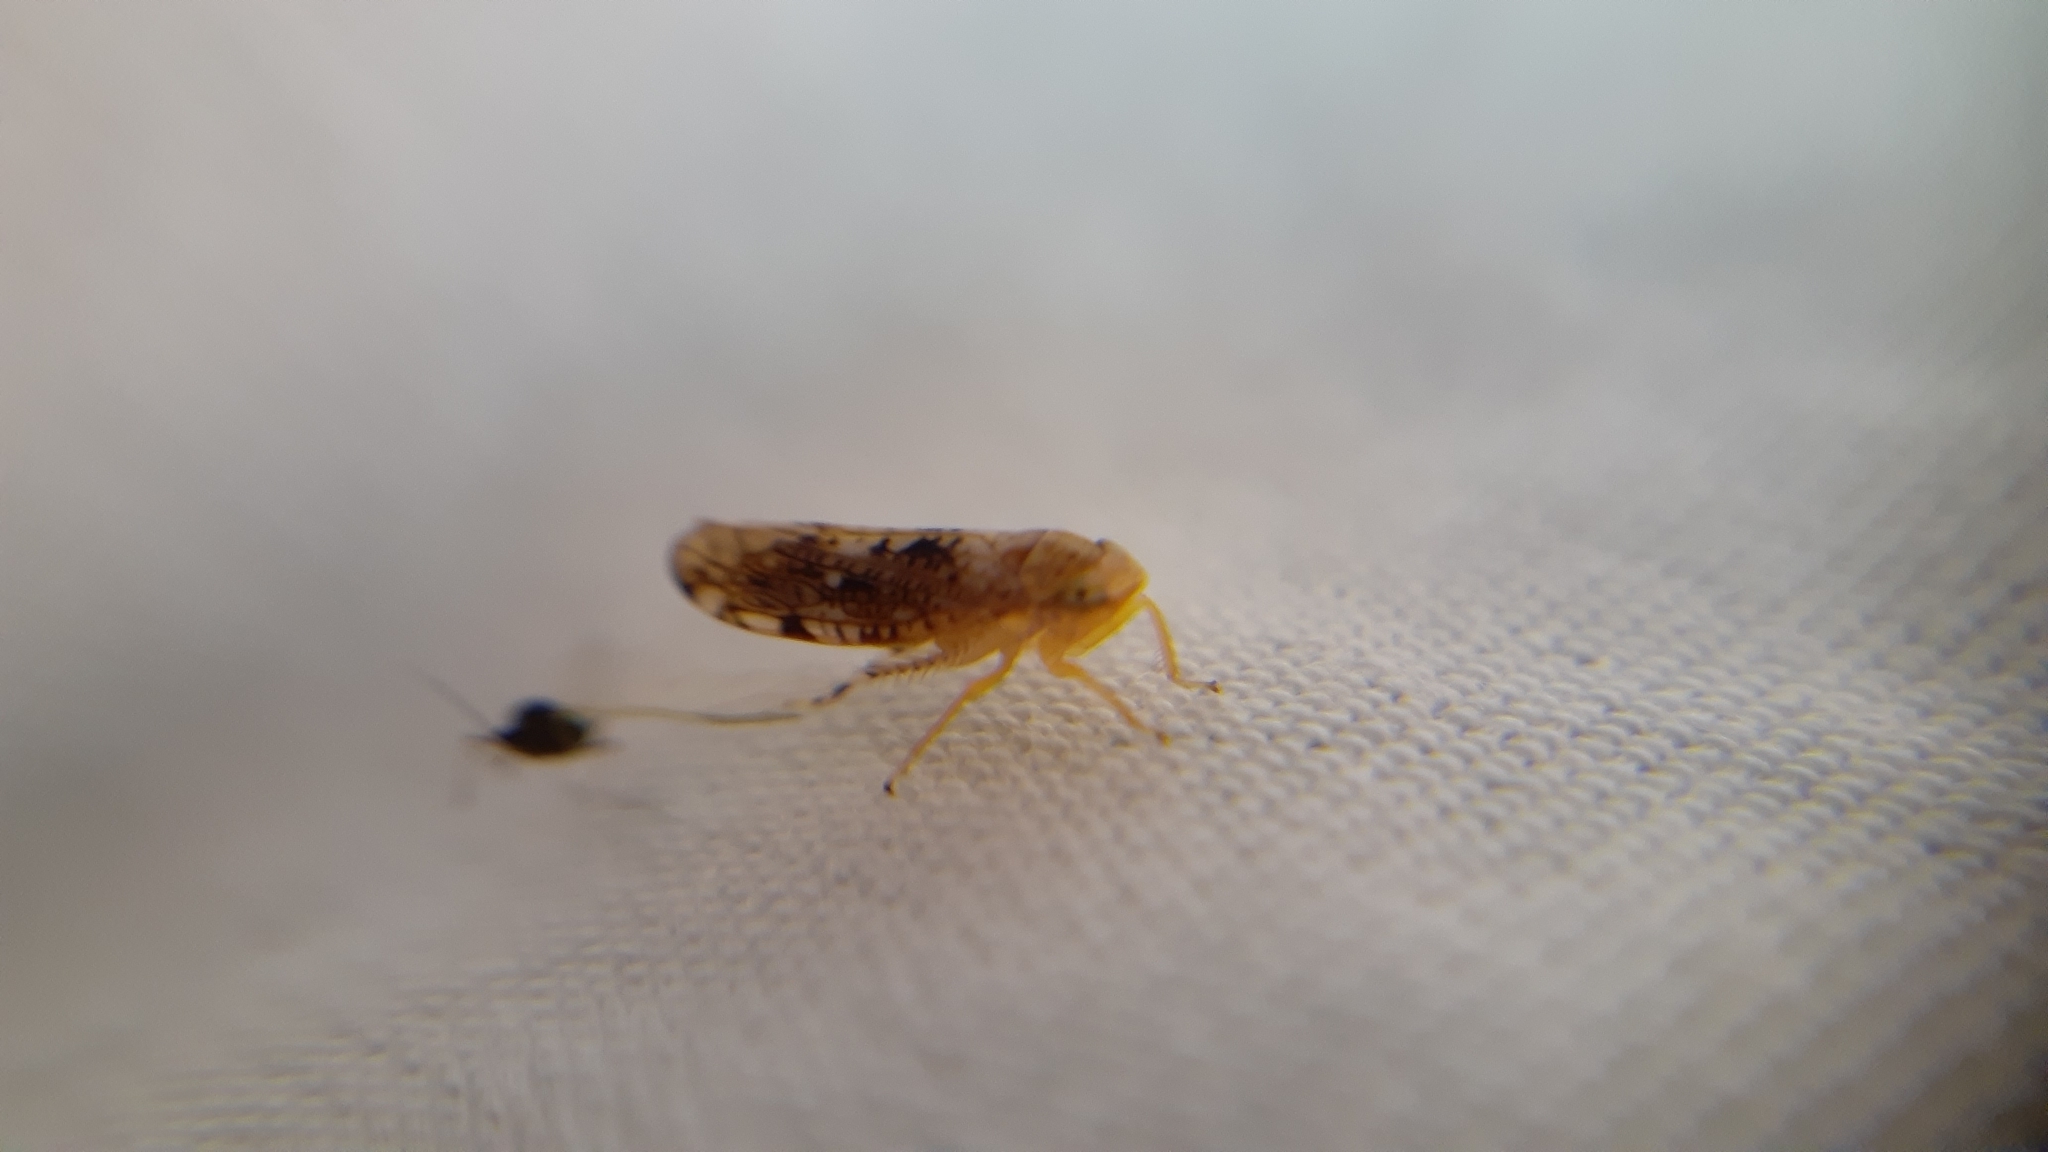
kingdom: Animalia
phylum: Arthropoda
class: Insecta
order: Hemiptera
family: Cicadellidae
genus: Prescottia
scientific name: Prescottia lobata
